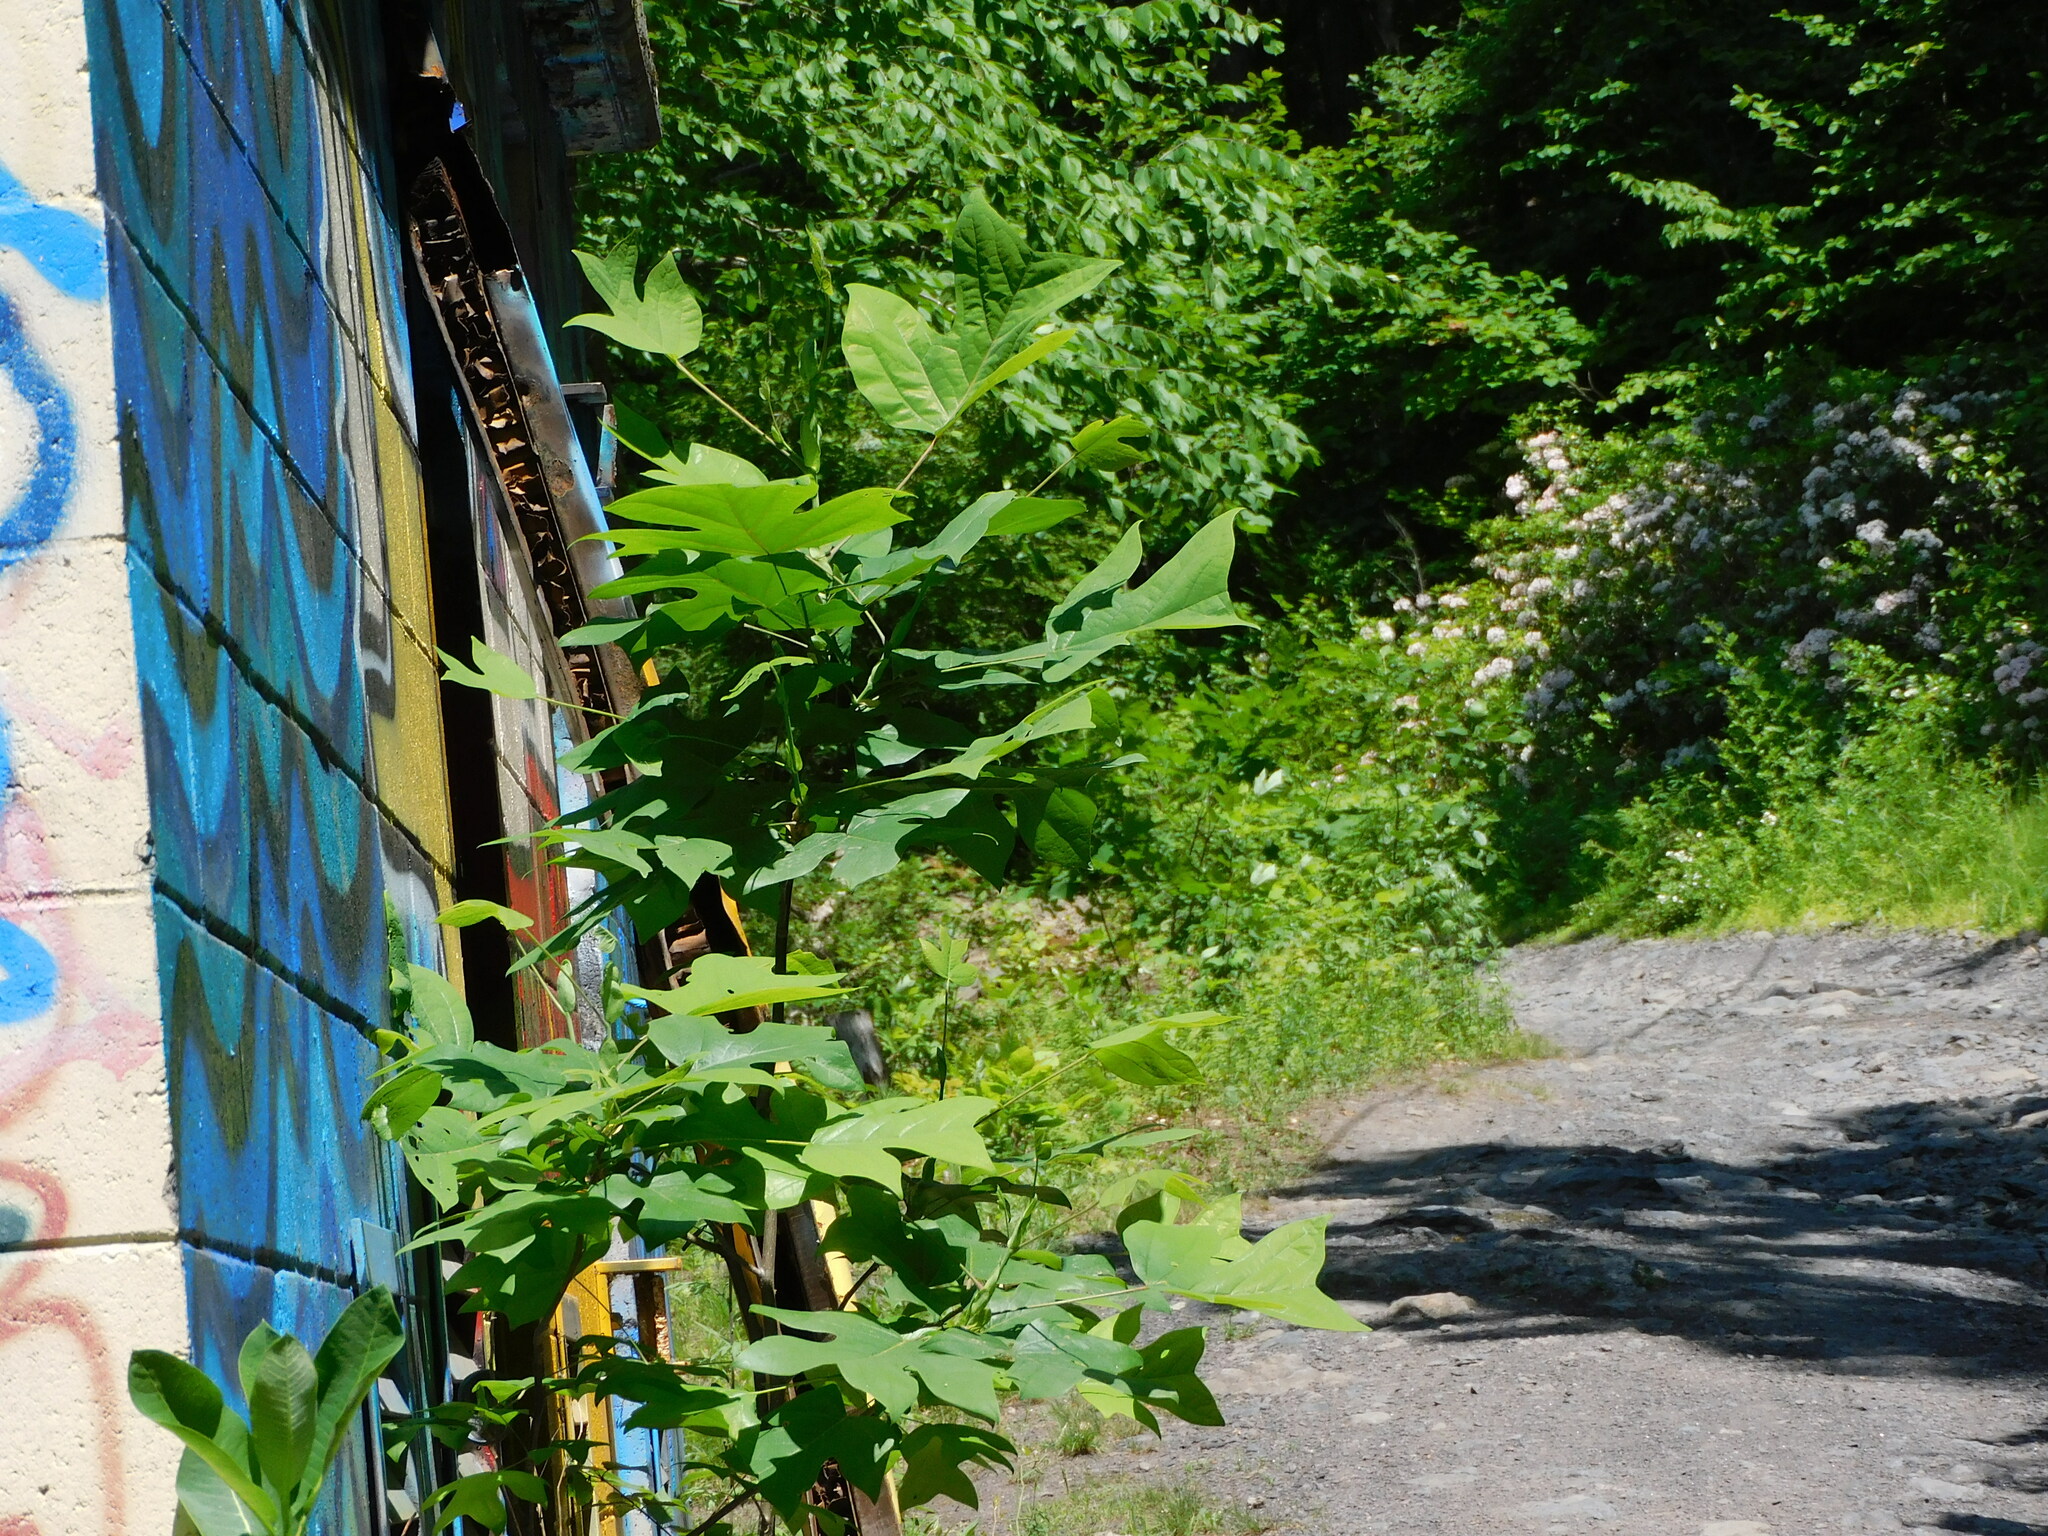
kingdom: Plantae
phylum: Tracheophyta
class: Magnoliopsida
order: Magnoliales
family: Magnoliaceae
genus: Liriodendron
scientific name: Liriodendron tulipifera
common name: Tulip tree
